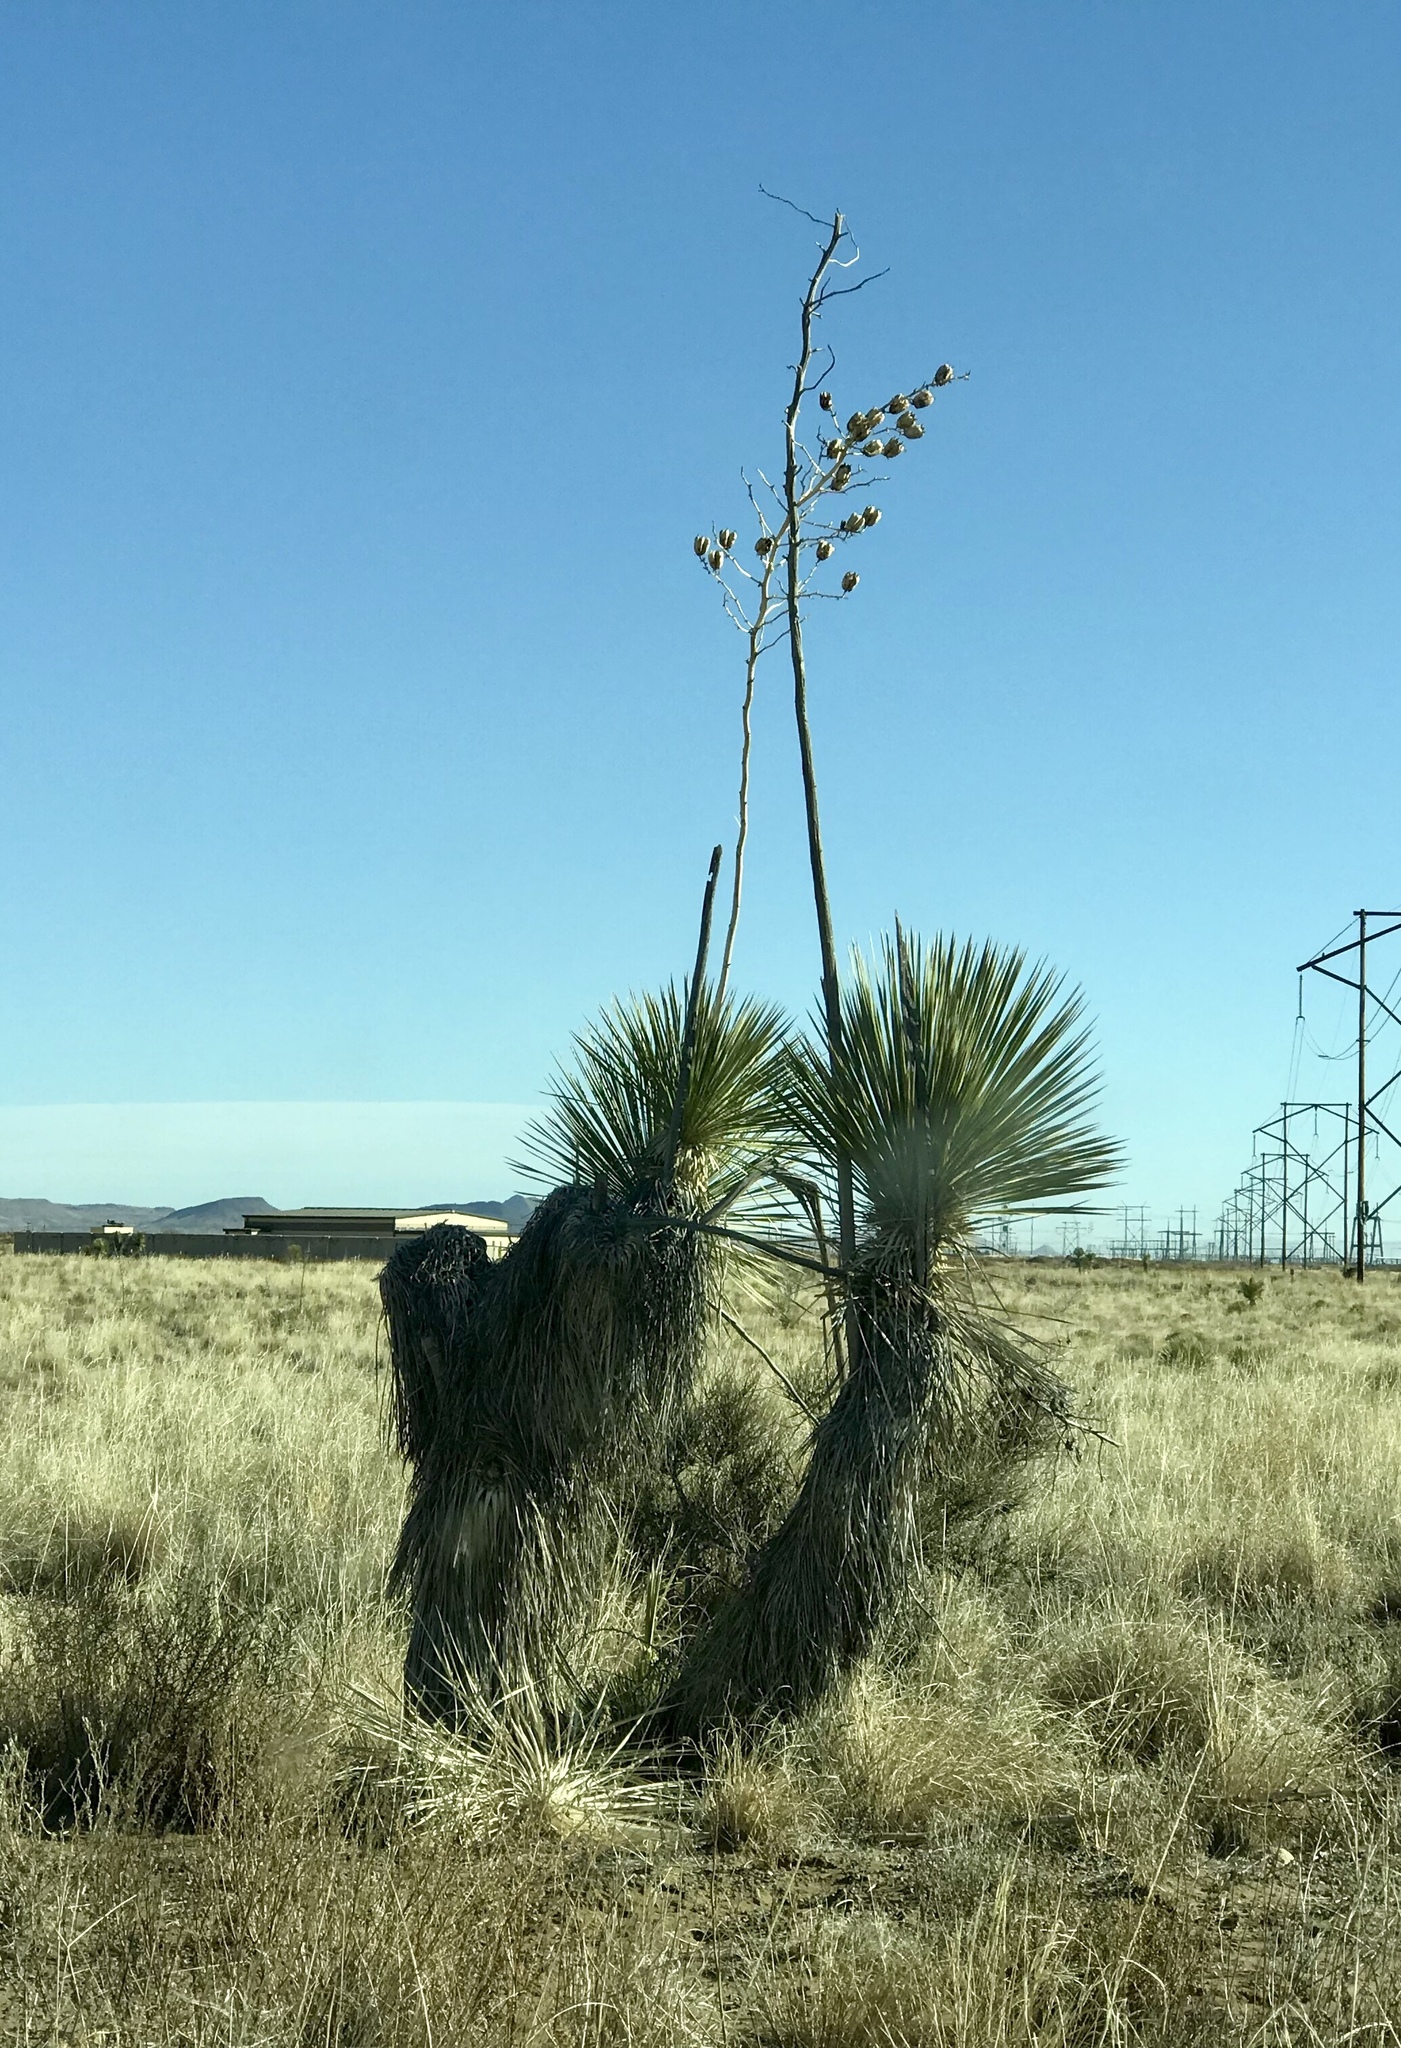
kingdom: Plantae
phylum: Tracheophyta
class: Liliopsida
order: Asparagales
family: Asparagaceae
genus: Yucca
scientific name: Yucca elata
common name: Palmella
